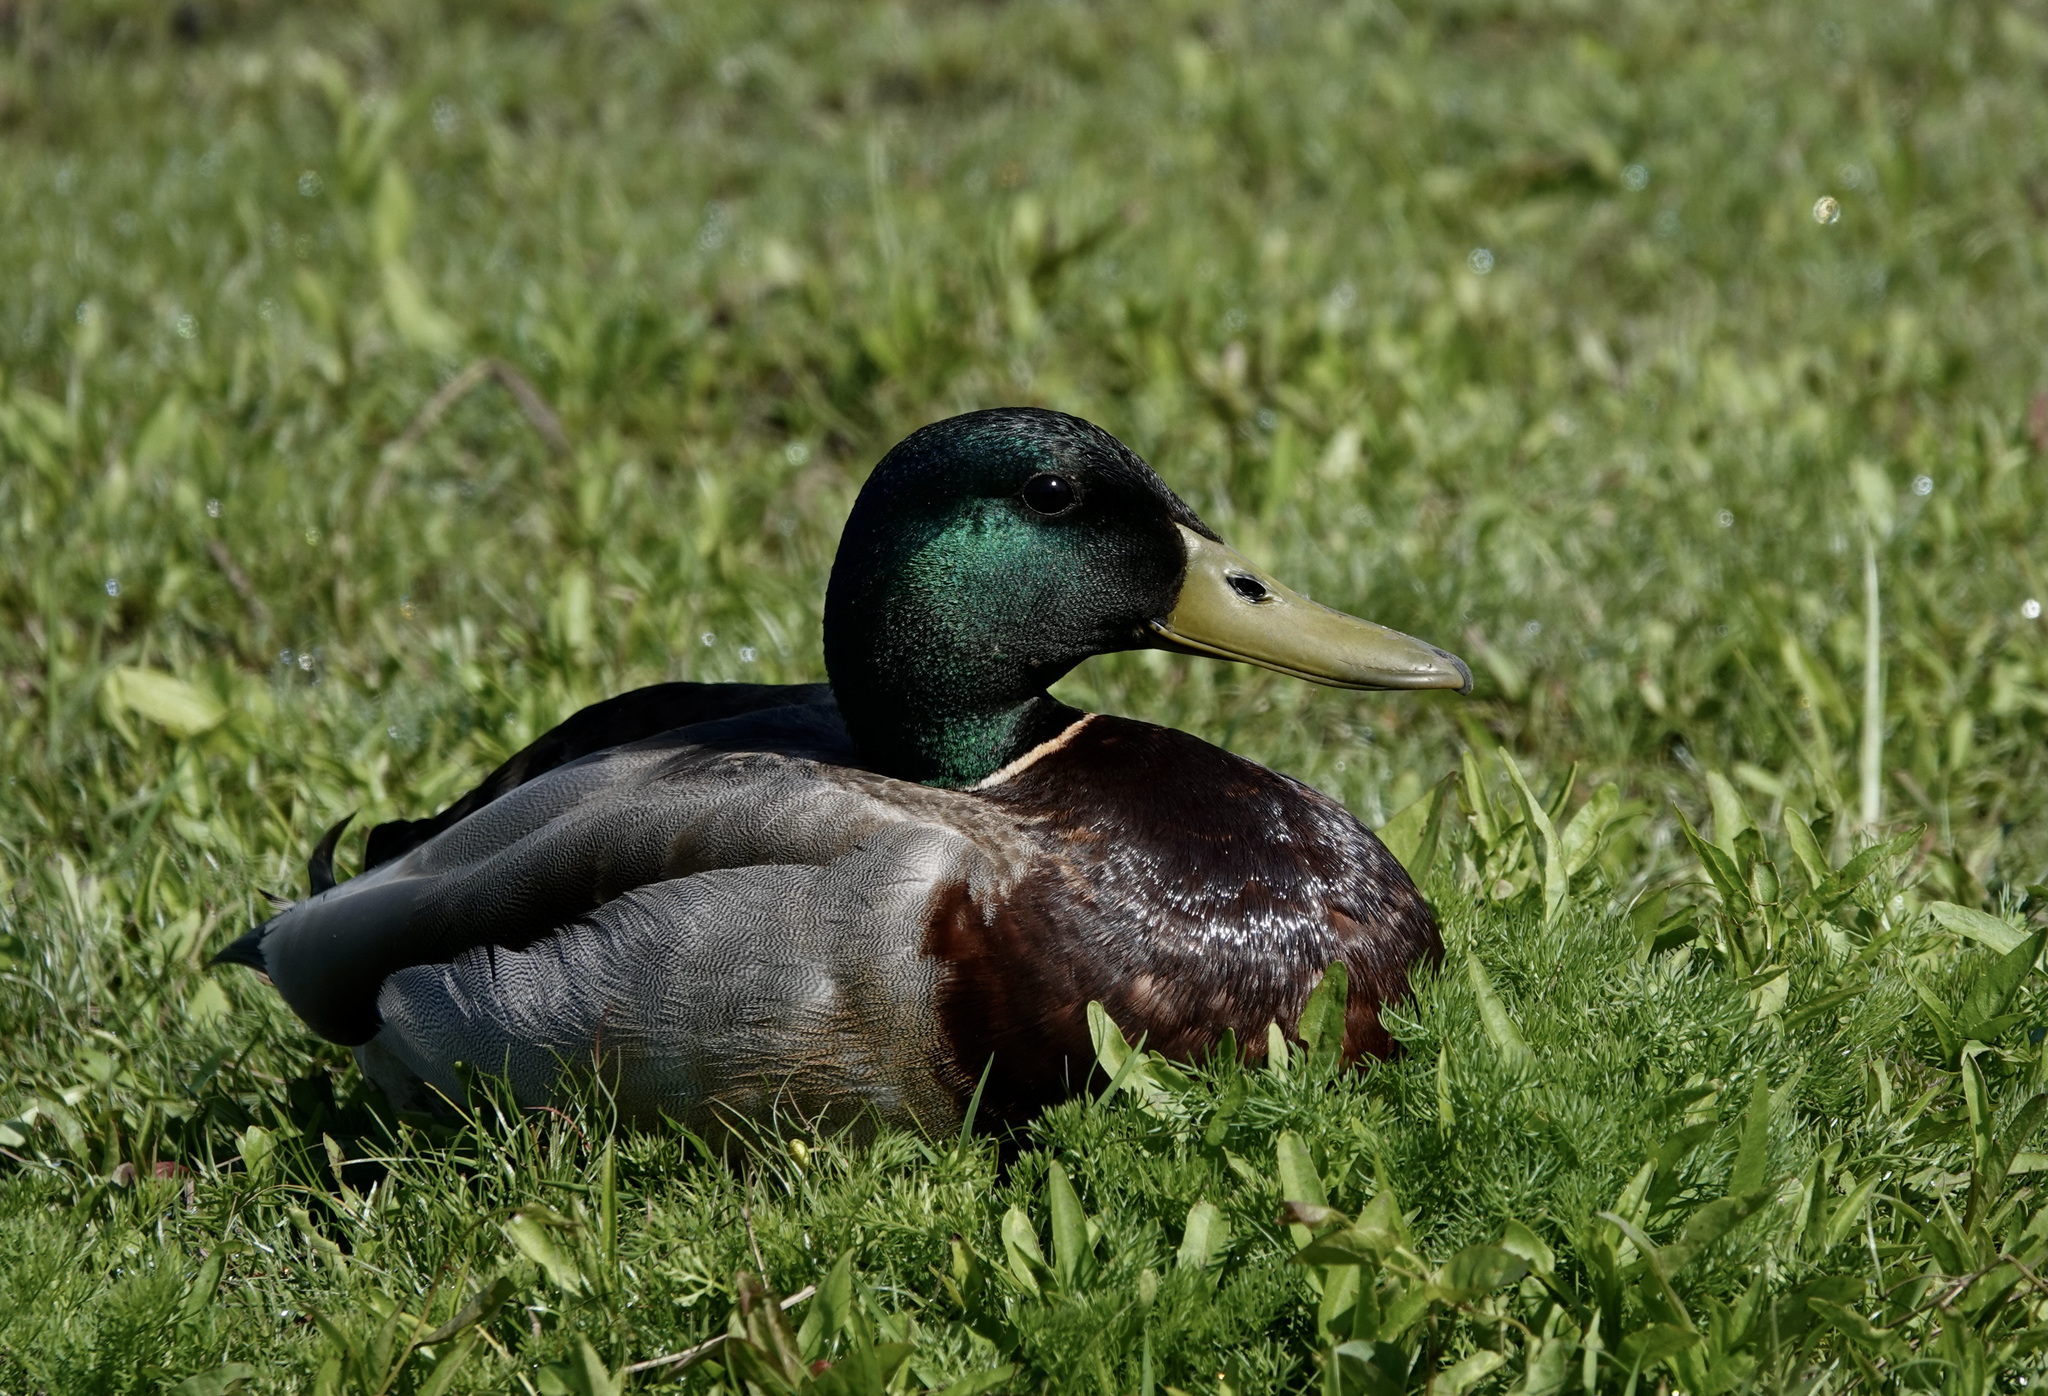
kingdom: Animalia
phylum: Chordata
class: Aves
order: Anseriformes
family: Anatidae
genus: Anas
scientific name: Anas platyrhynchos
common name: Mallard
